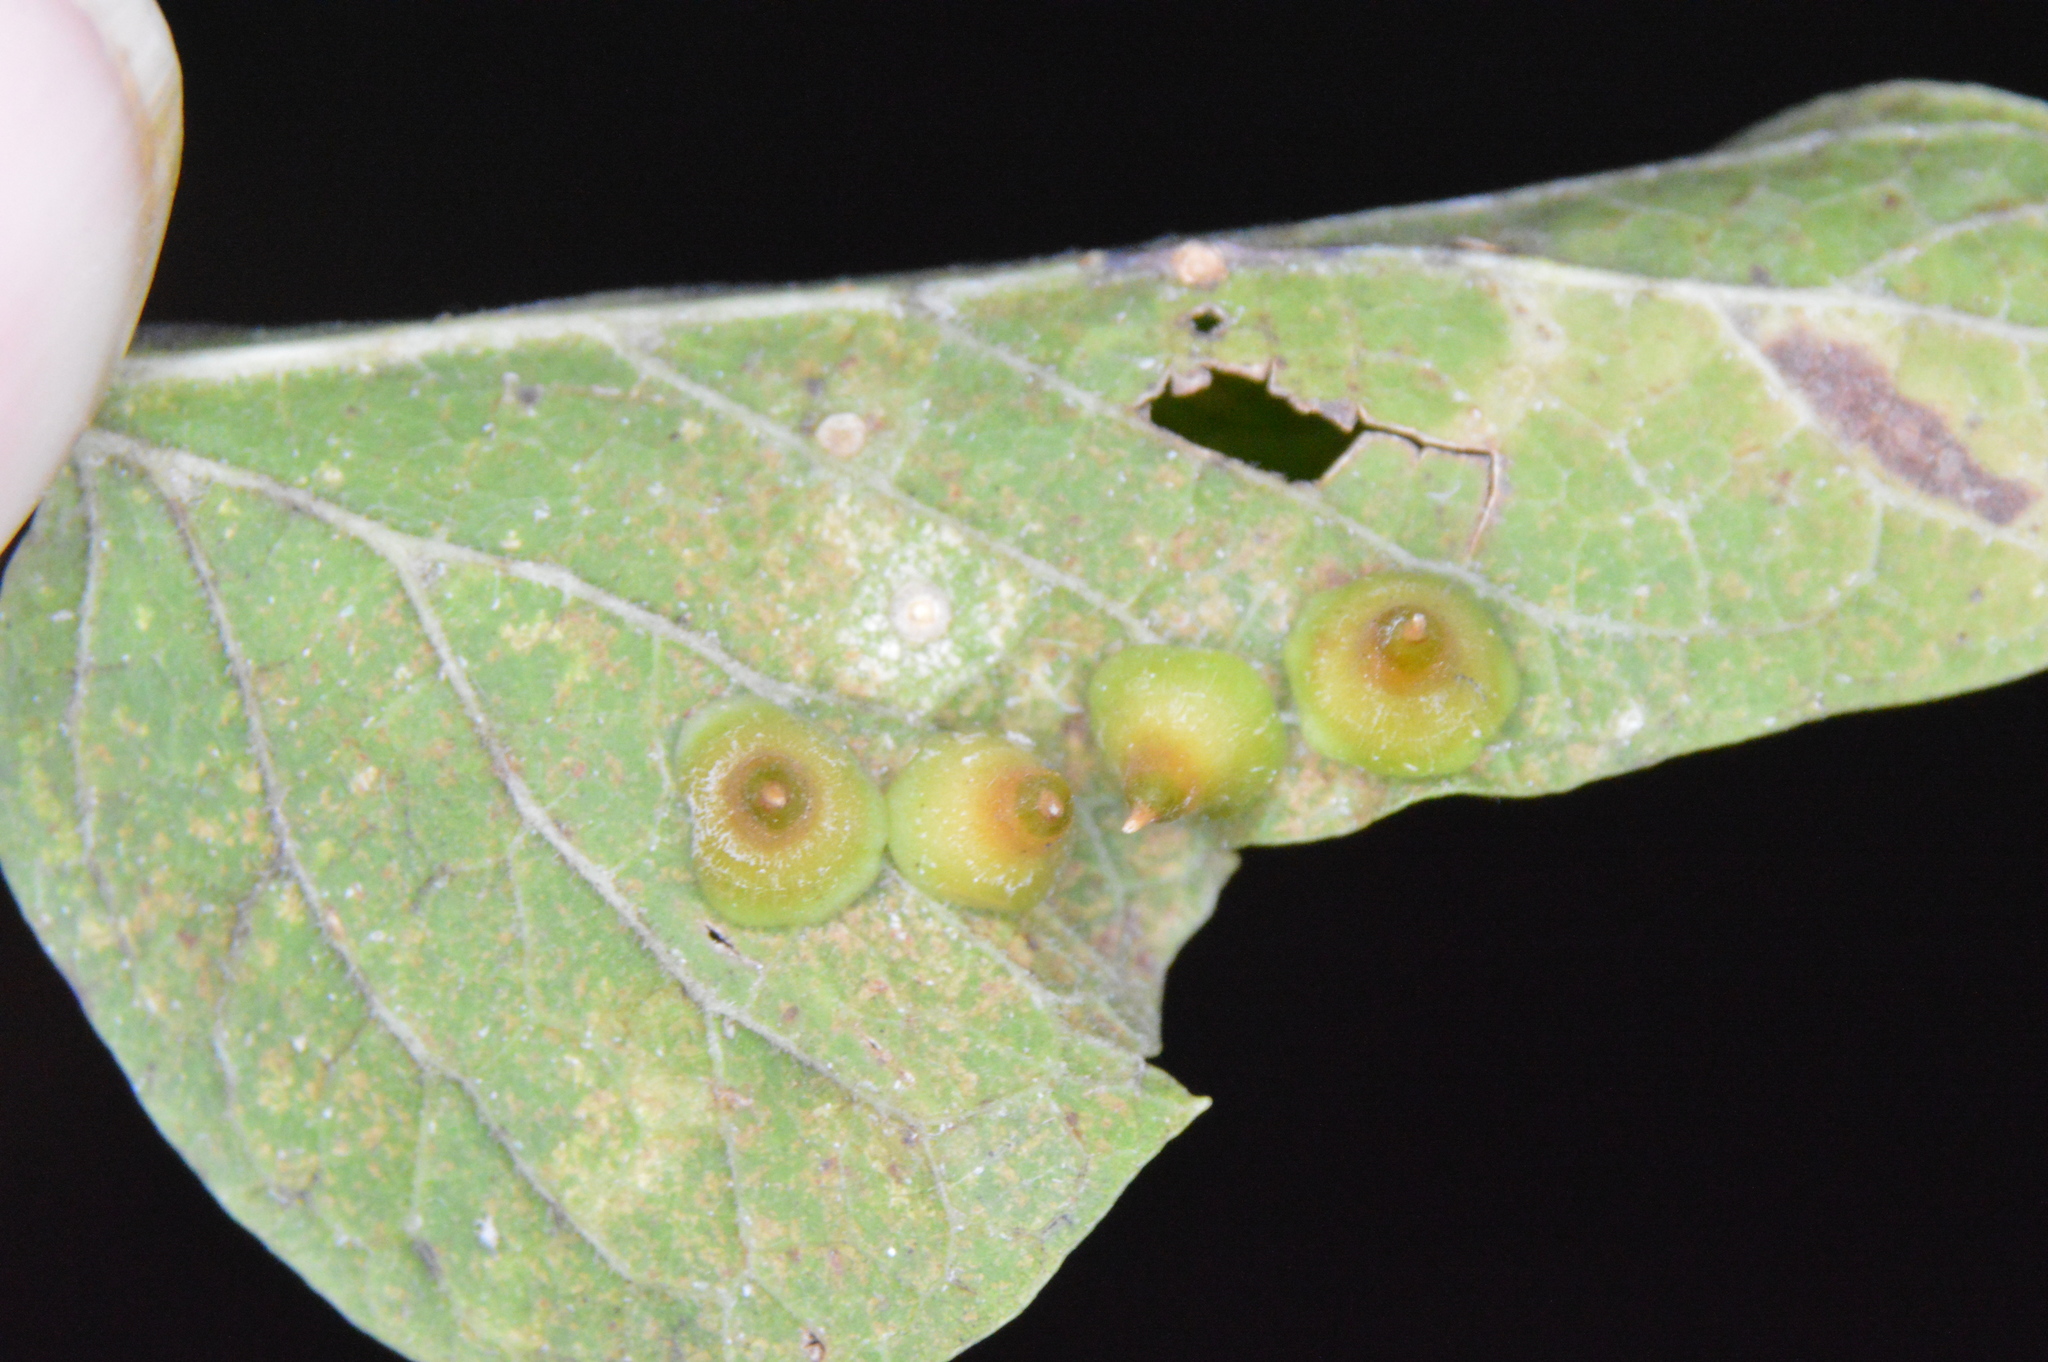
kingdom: Animalia
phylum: Arthropoda
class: Insecta
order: Diptera
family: Cecidomyiidae
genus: Celticecis
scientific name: Celticecis spiniformis
